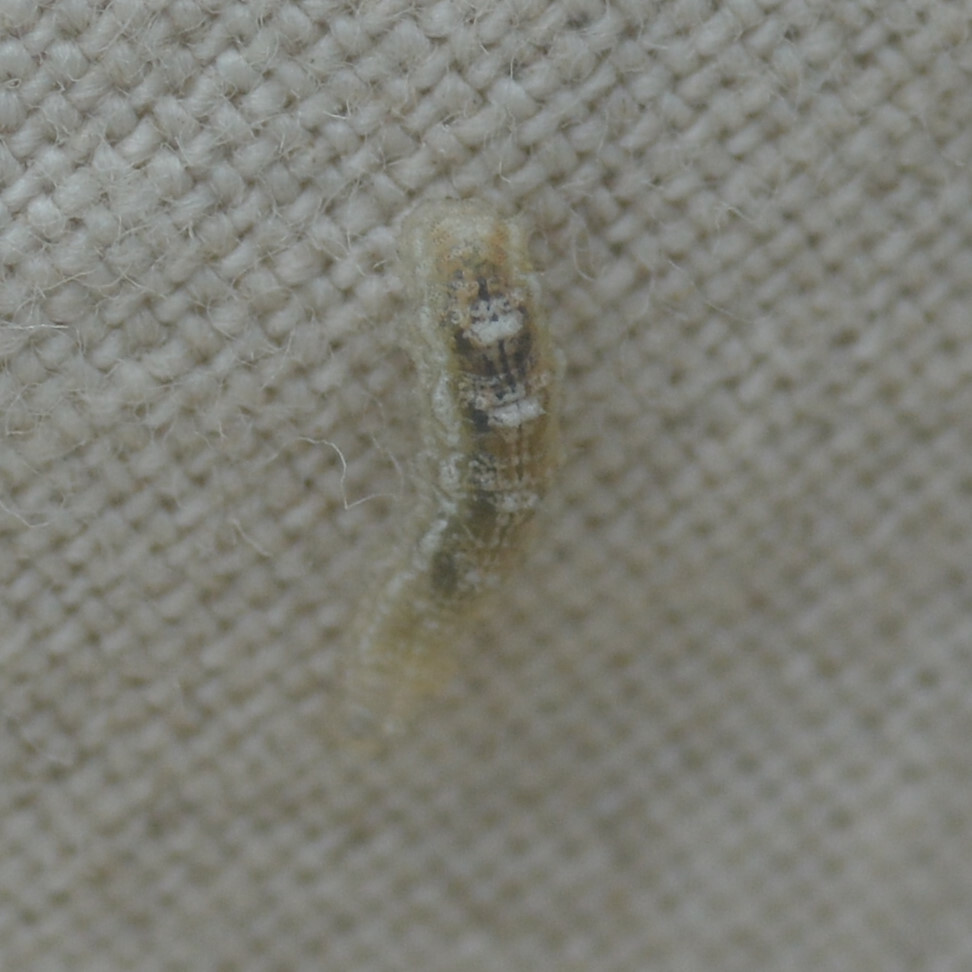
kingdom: Animalia
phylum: Arthropoda
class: Insecta
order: Diptera
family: Syrphidae
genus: Eupeodes
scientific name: Eupeodes
